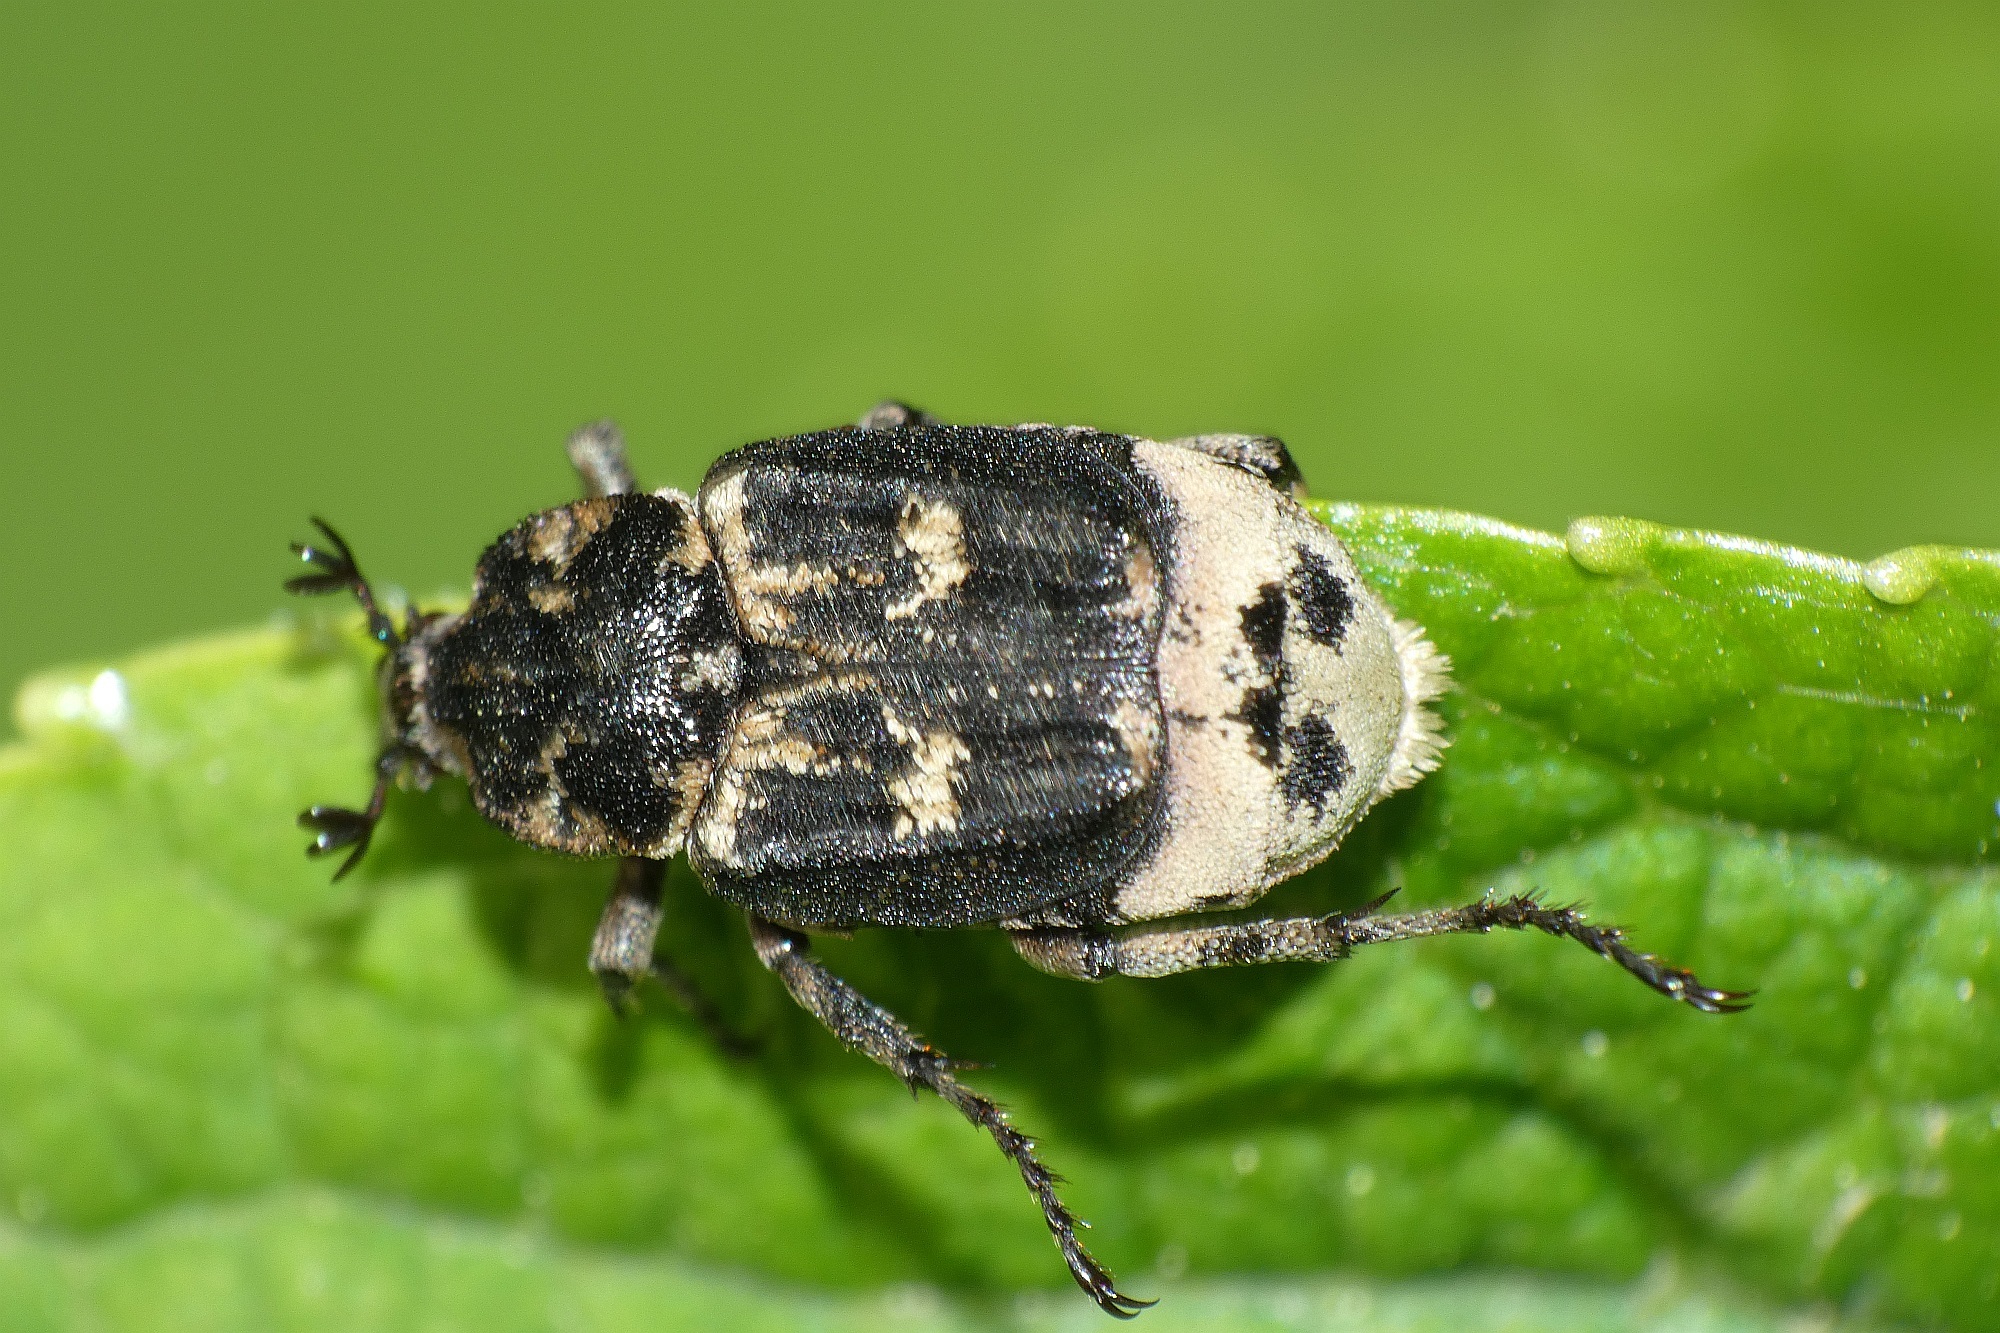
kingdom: Animalia
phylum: Arthropoda
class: Insecta
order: Coleoptera
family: Scarabaeidae
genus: Valgus
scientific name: Valgus hemipterus
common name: Bug flower chafer
